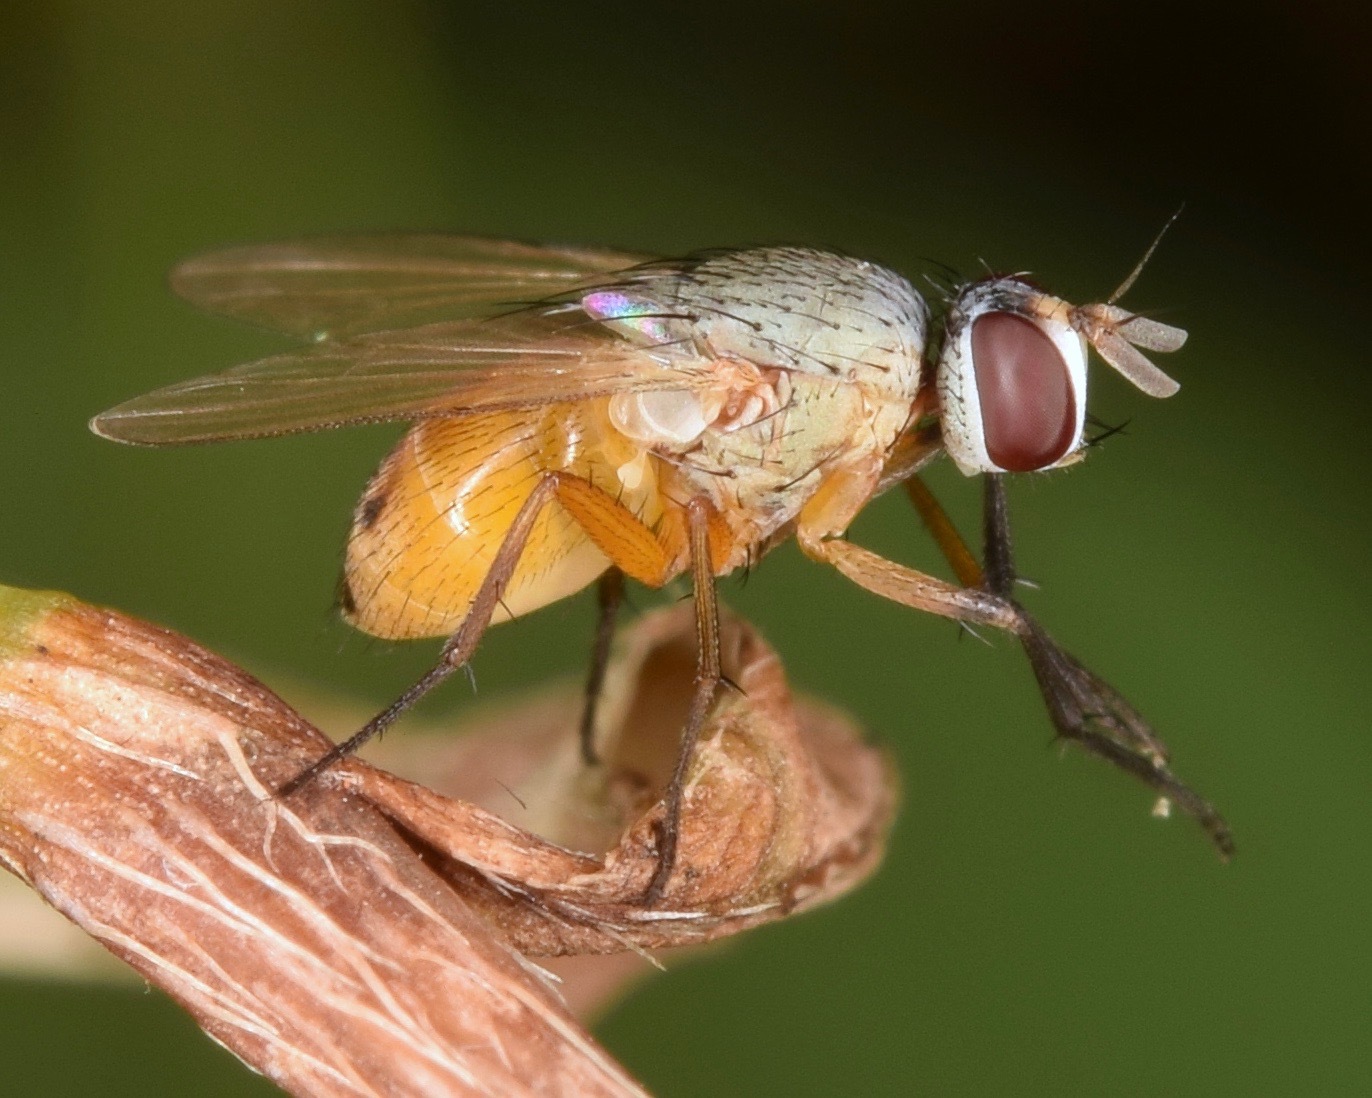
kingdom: Animalia
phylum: Arthropoda
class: Insecta
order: Diptera
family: Muscidae
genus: Atherigona
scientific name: Atherigona reversura
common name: Bermudagrass stem maggot
